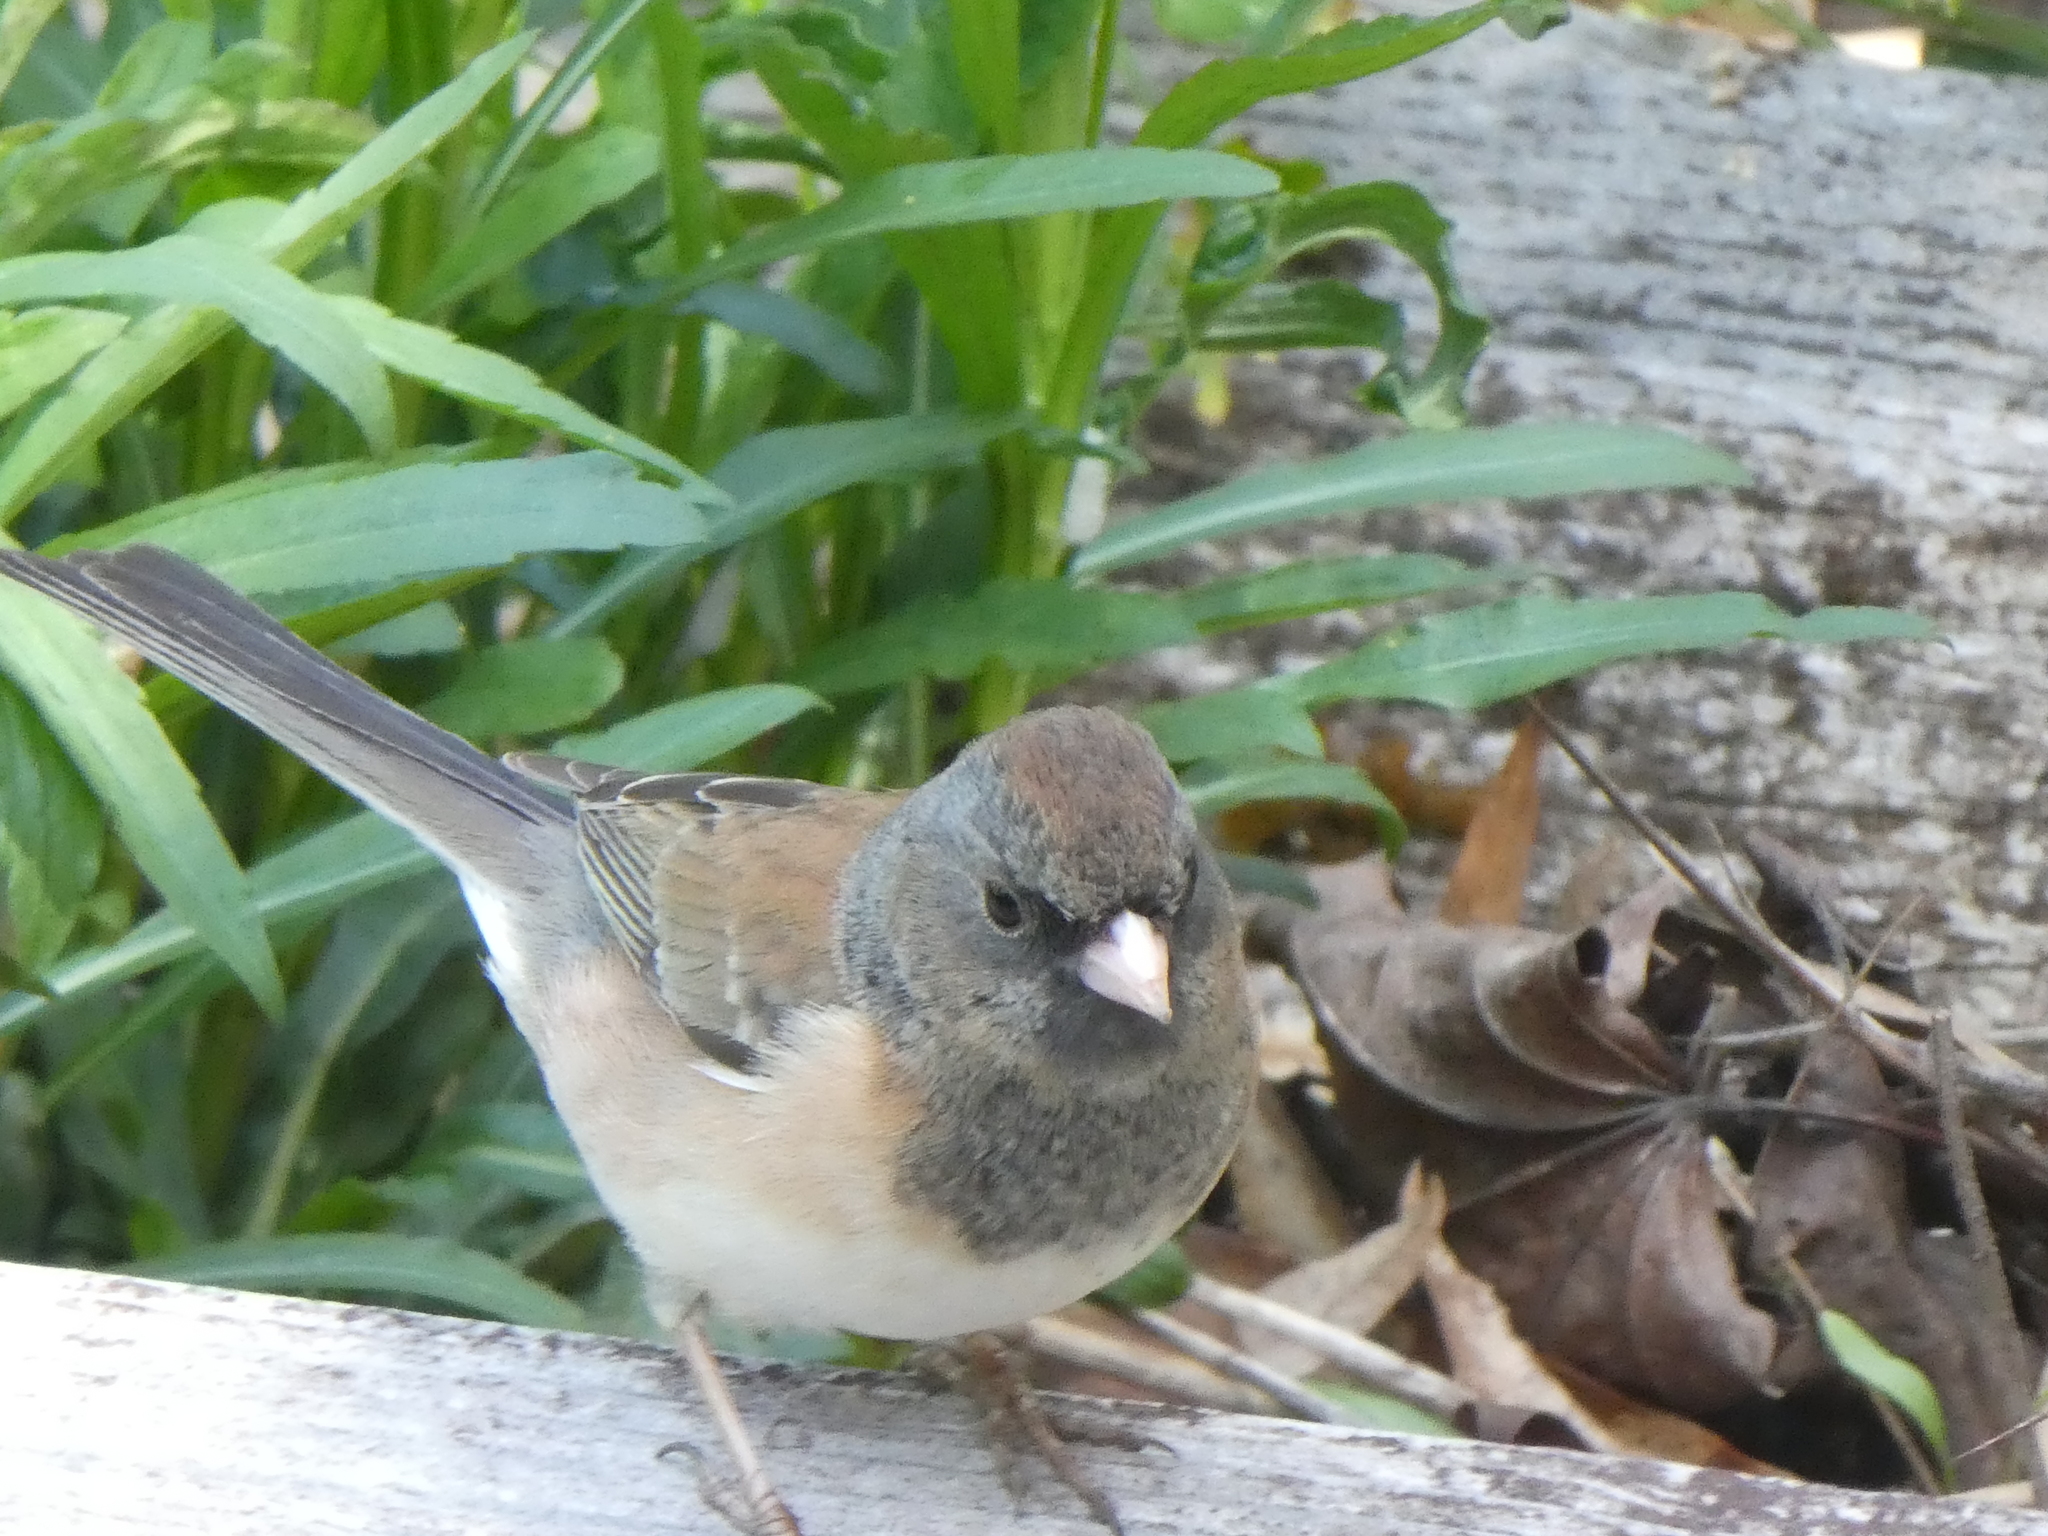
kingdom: Animalia
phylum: Chordata
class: Aves
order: Passeriformes
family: Passerellidae
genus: Junco
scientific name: Junco hyemalis
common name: Dark-eyed junco
